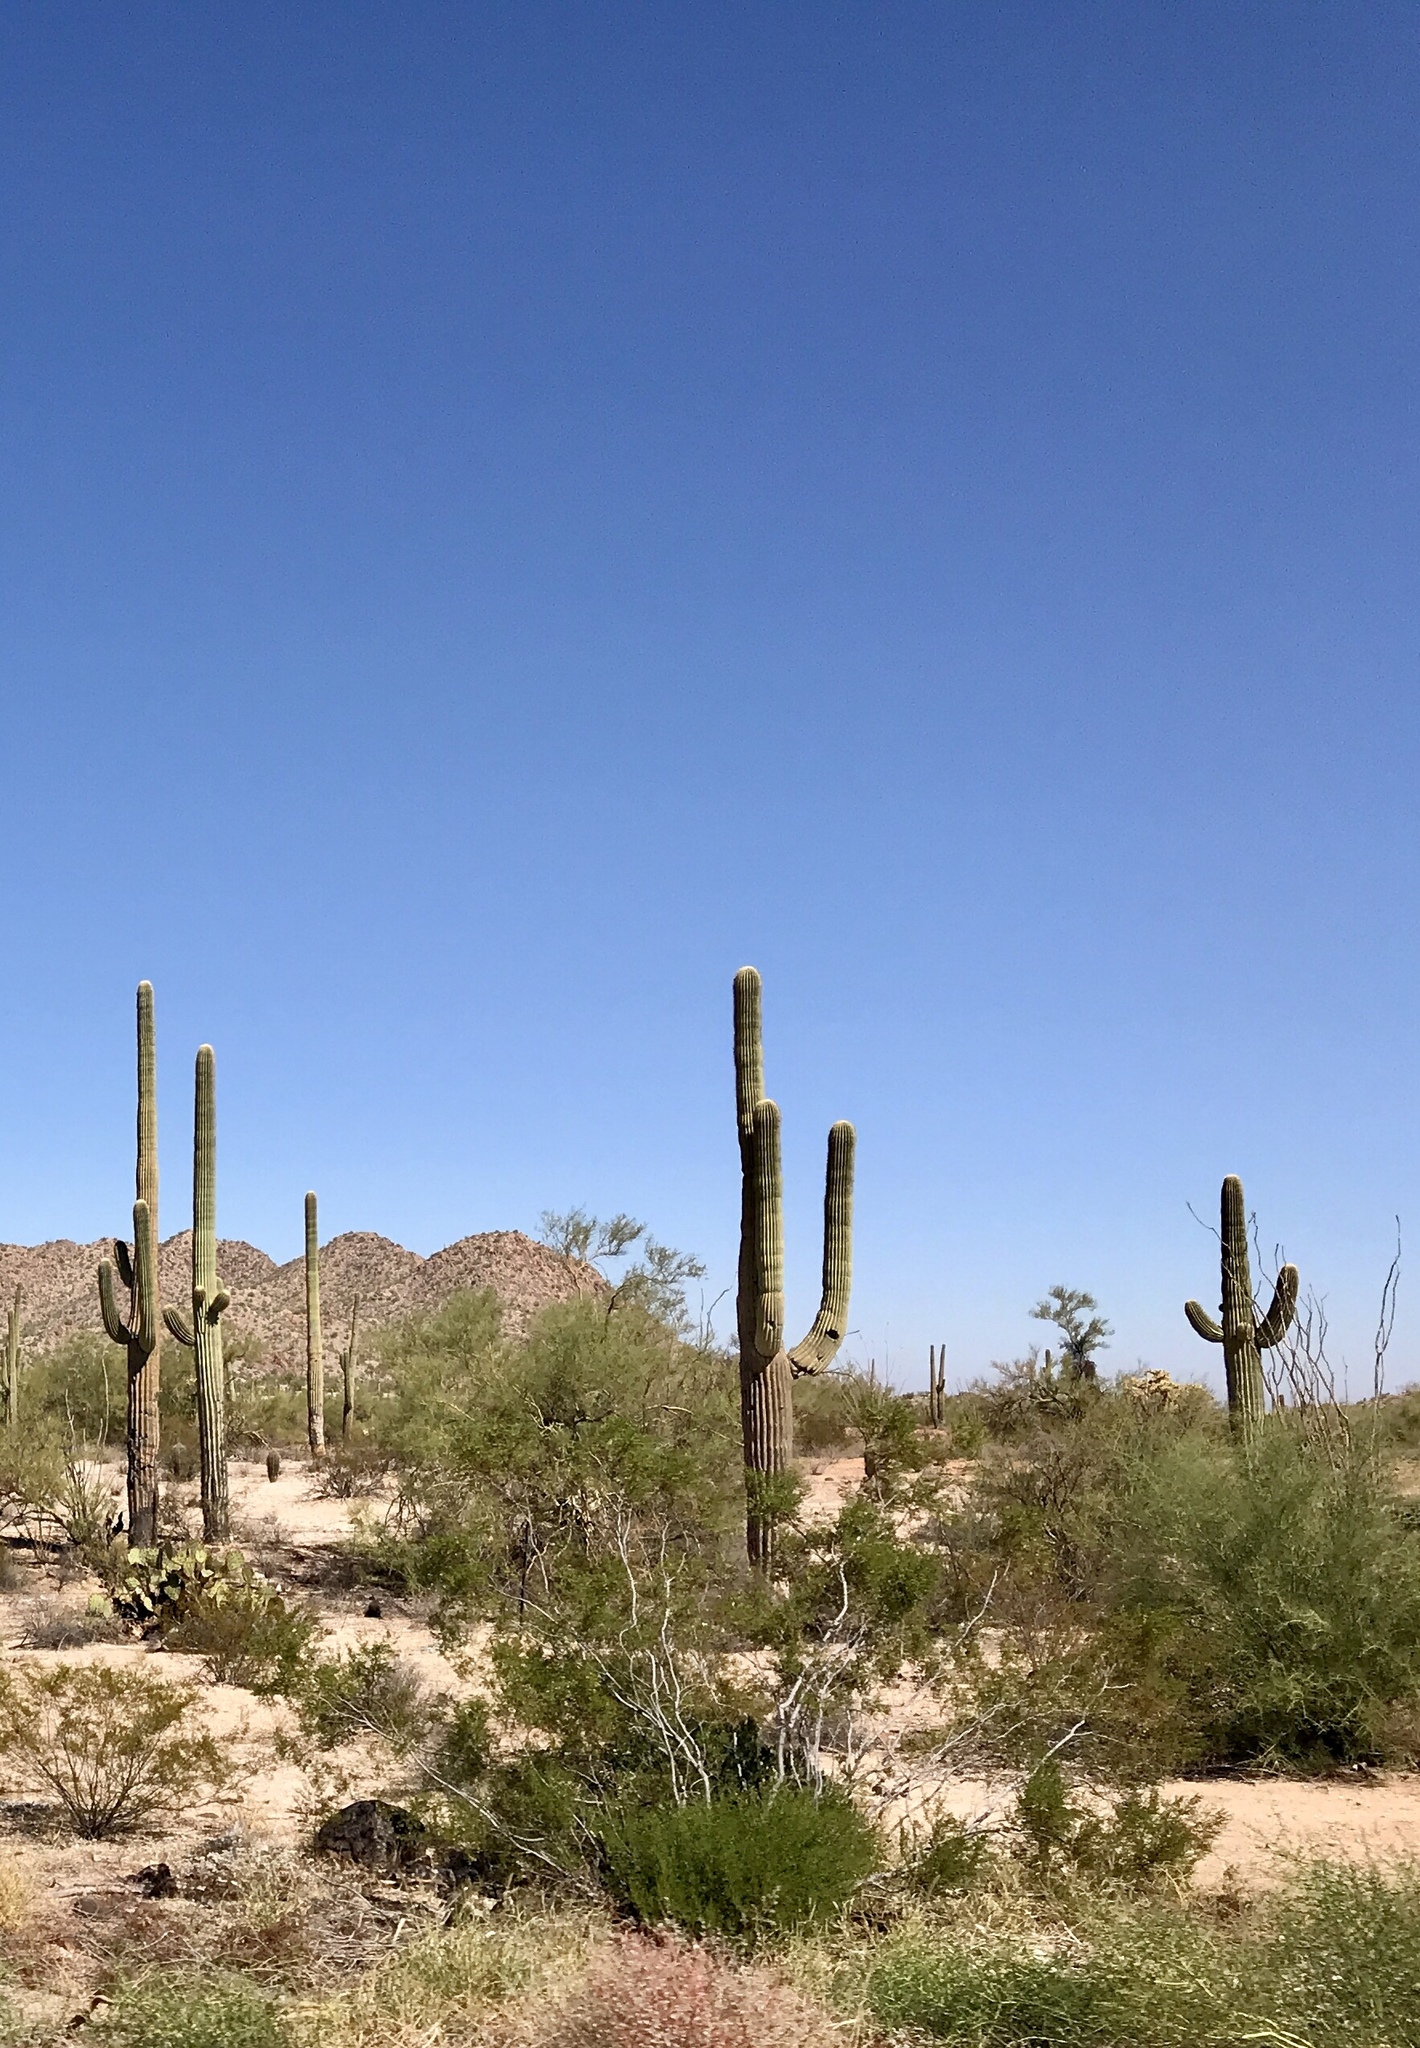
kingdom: Plantae
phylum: Tracheophyta
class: Magnoliopsida
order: Caryophyllales
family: Cactaceae
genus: Carnegiea
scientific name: Carnegiea gigantea
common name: Saguaro
